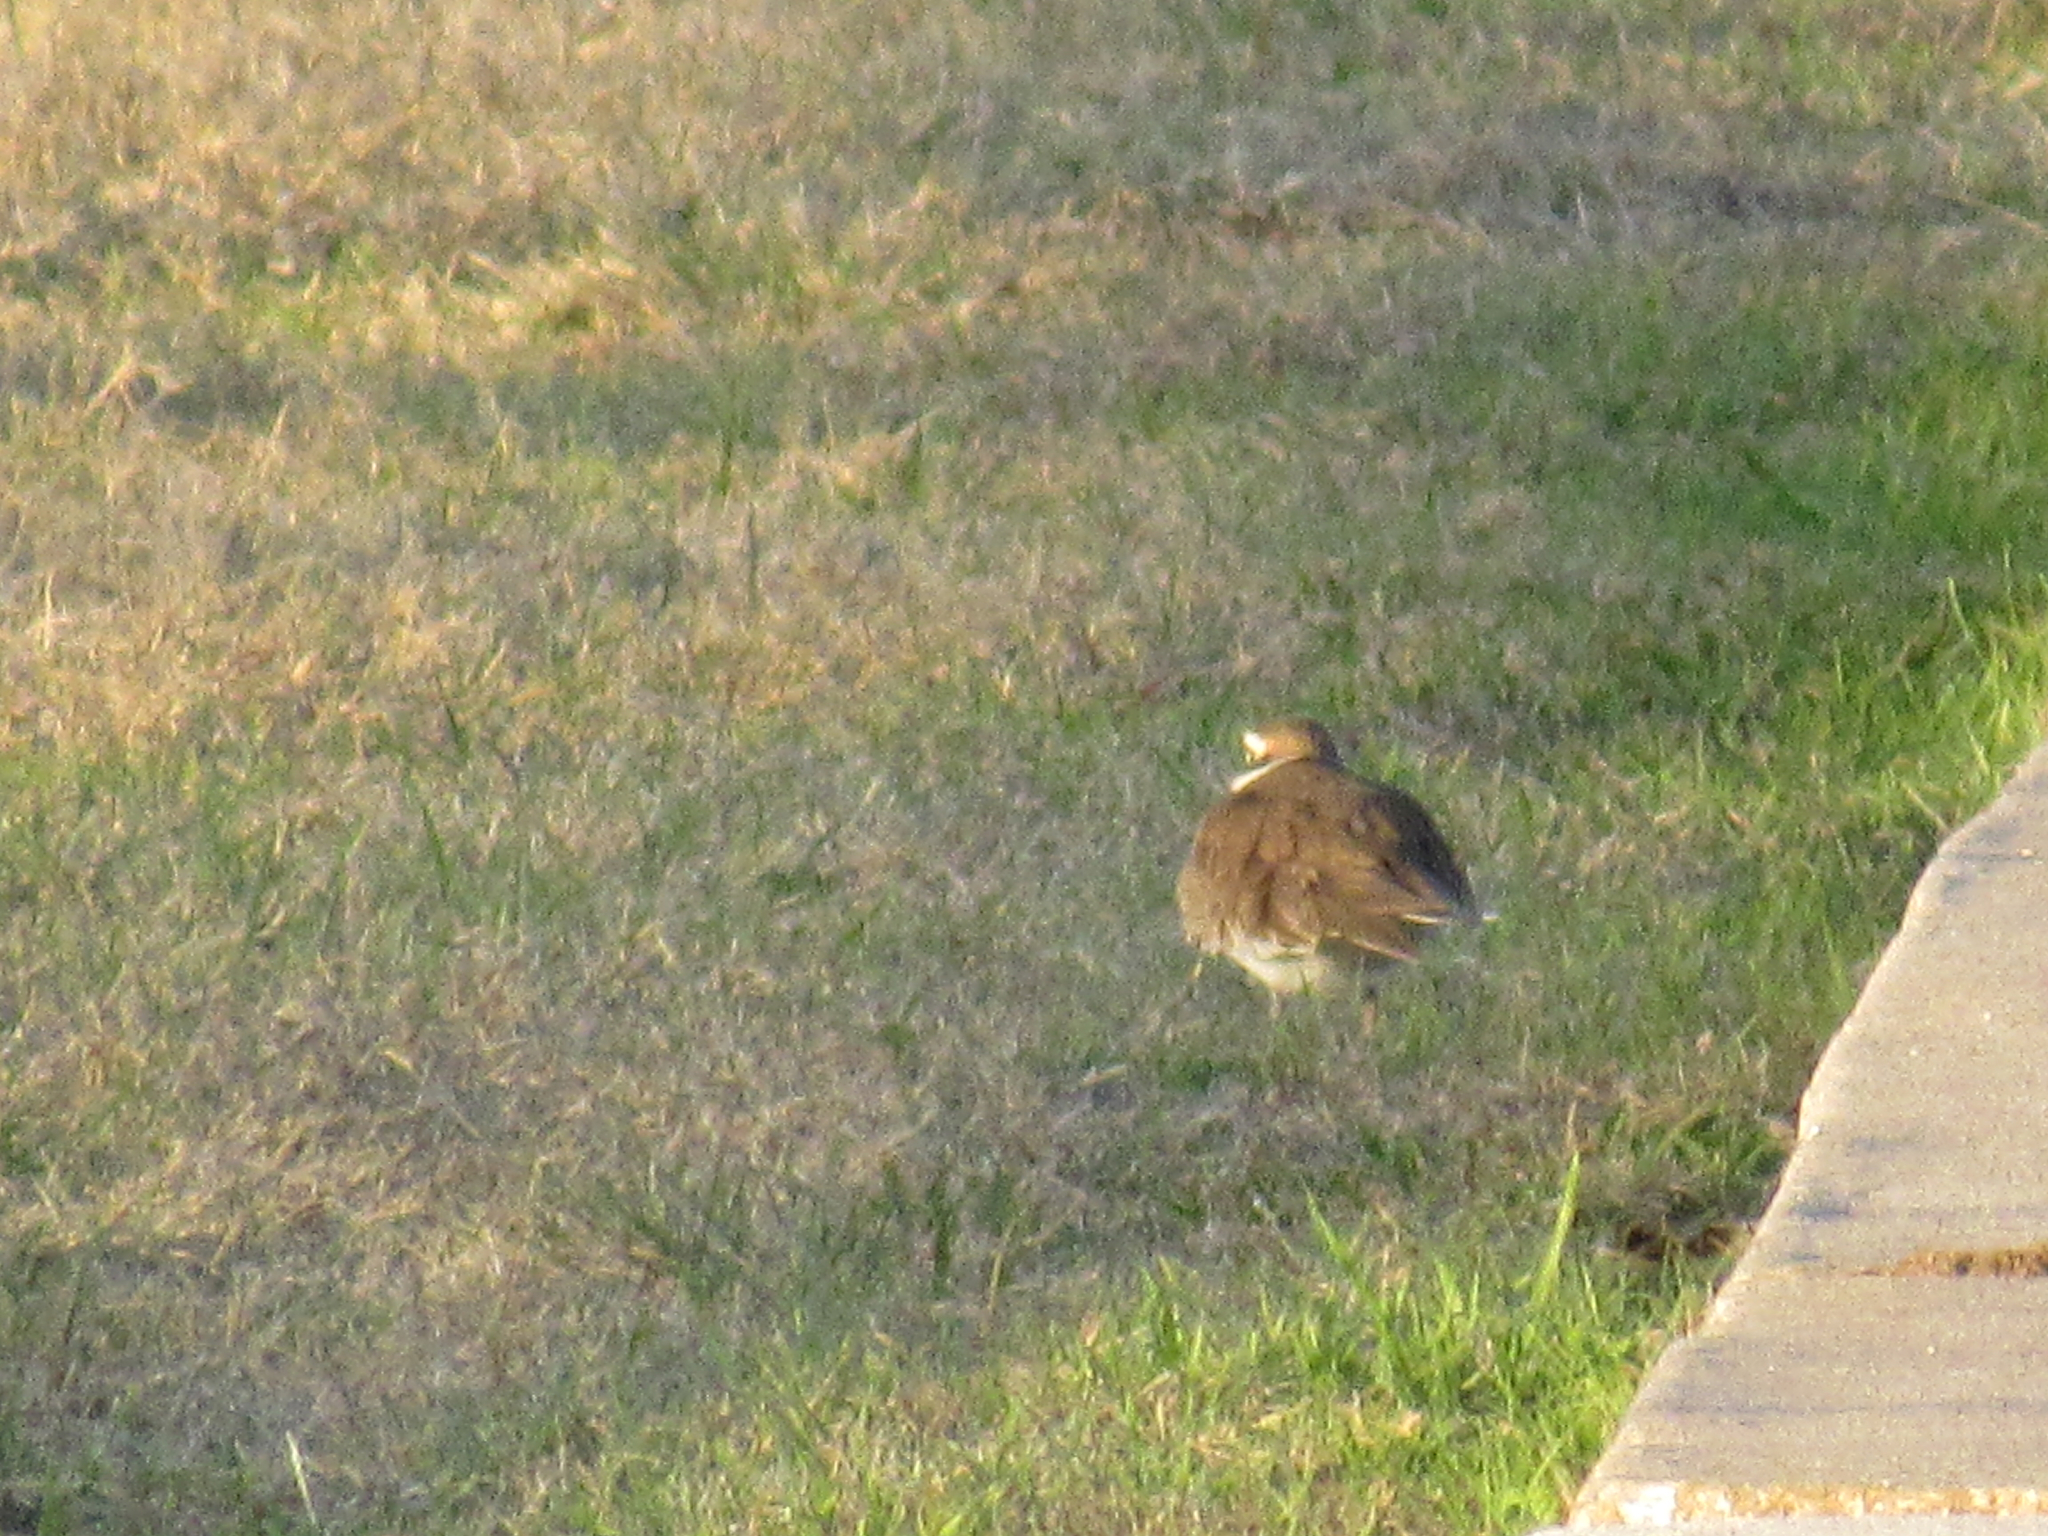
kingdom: Animalia
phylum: Chordata
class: Aves
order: Charadriiformes
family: Charadriidae
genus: Charadrius
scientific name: Charadrius vociferus
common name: Killdeer
